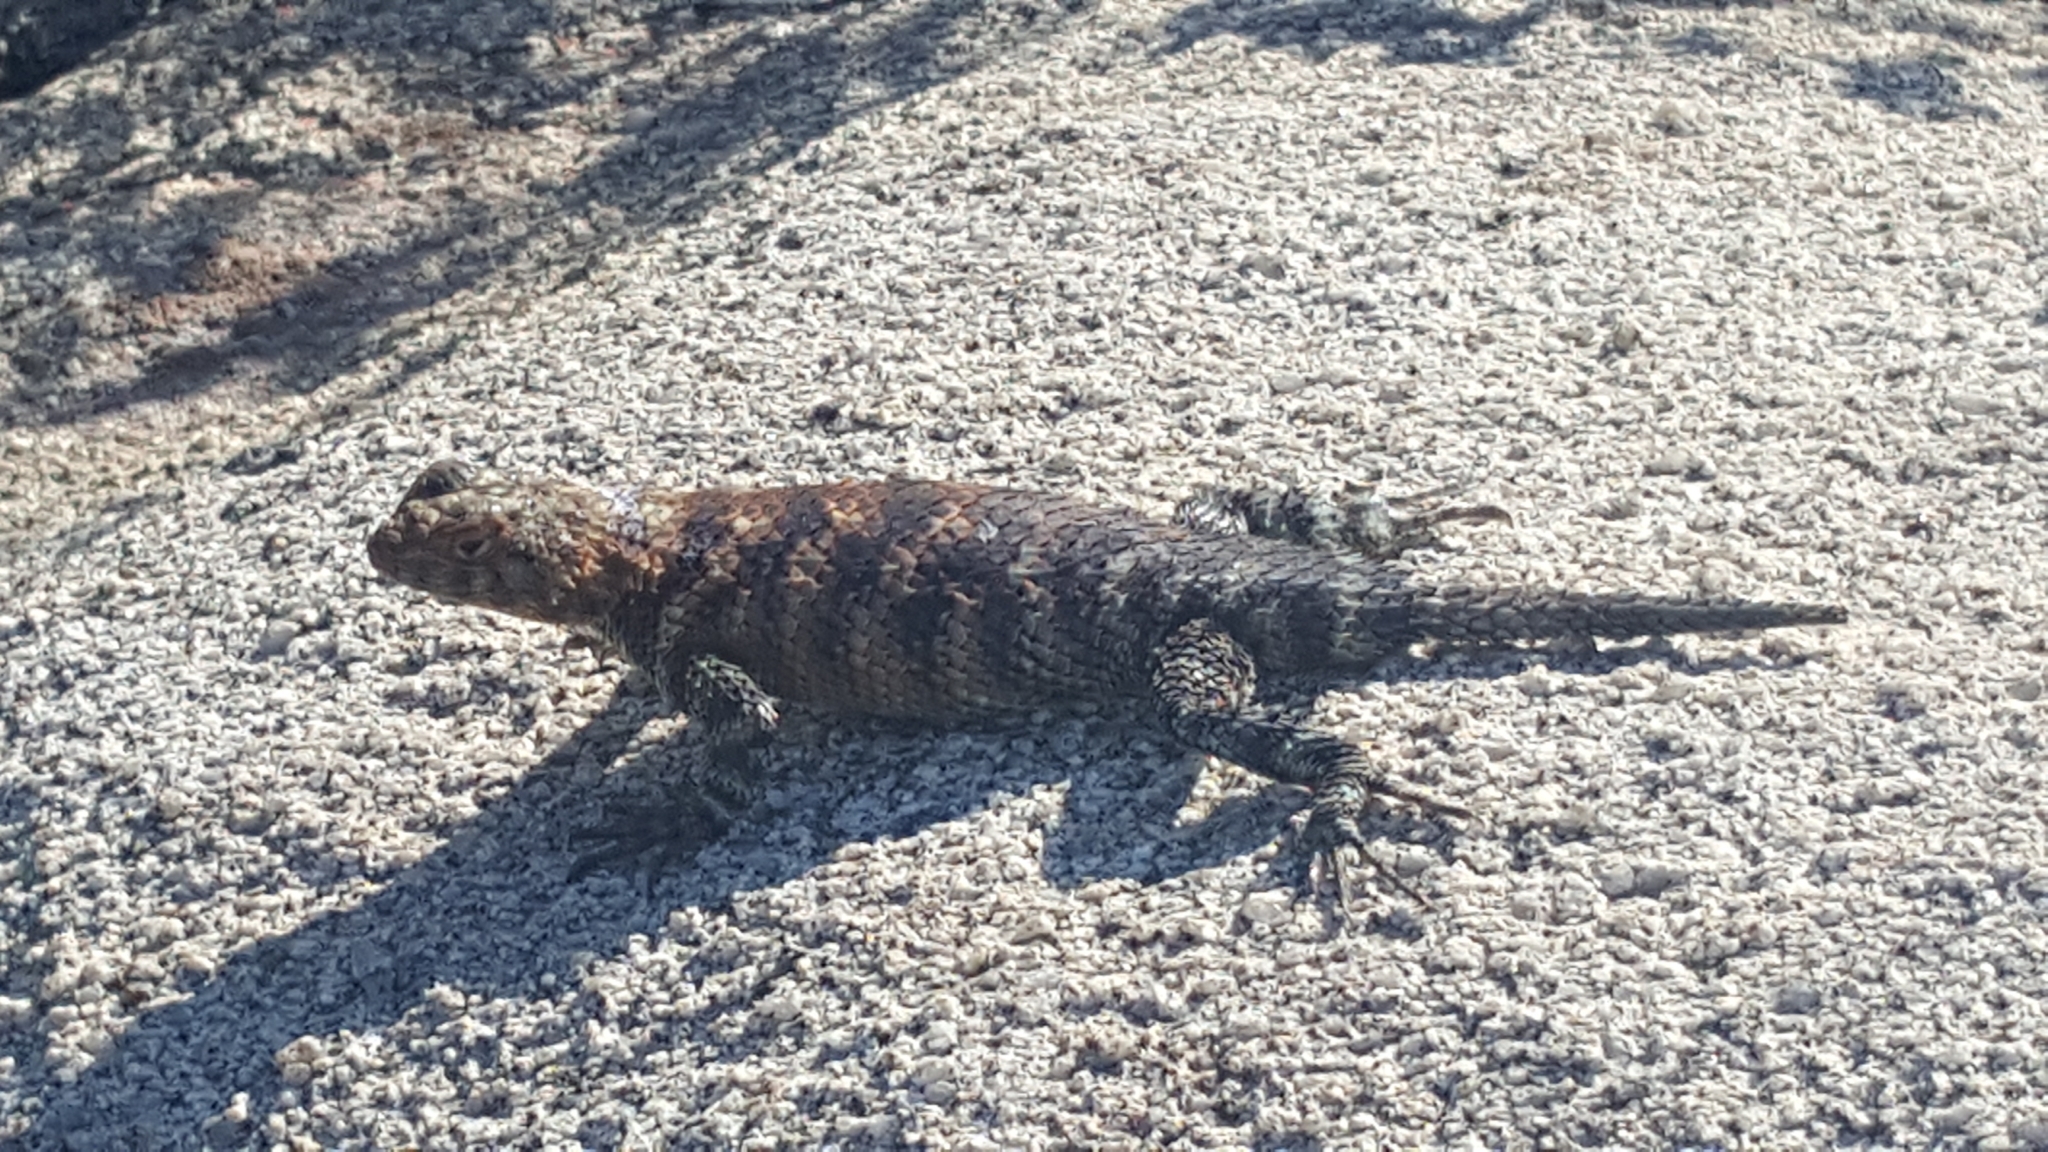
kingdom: Animalia
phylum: Chordata
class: Squamata
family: Phrynosomatidae
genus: Sceloporus
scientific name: Sceloporus orcutti
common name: Granite spiny lizard
